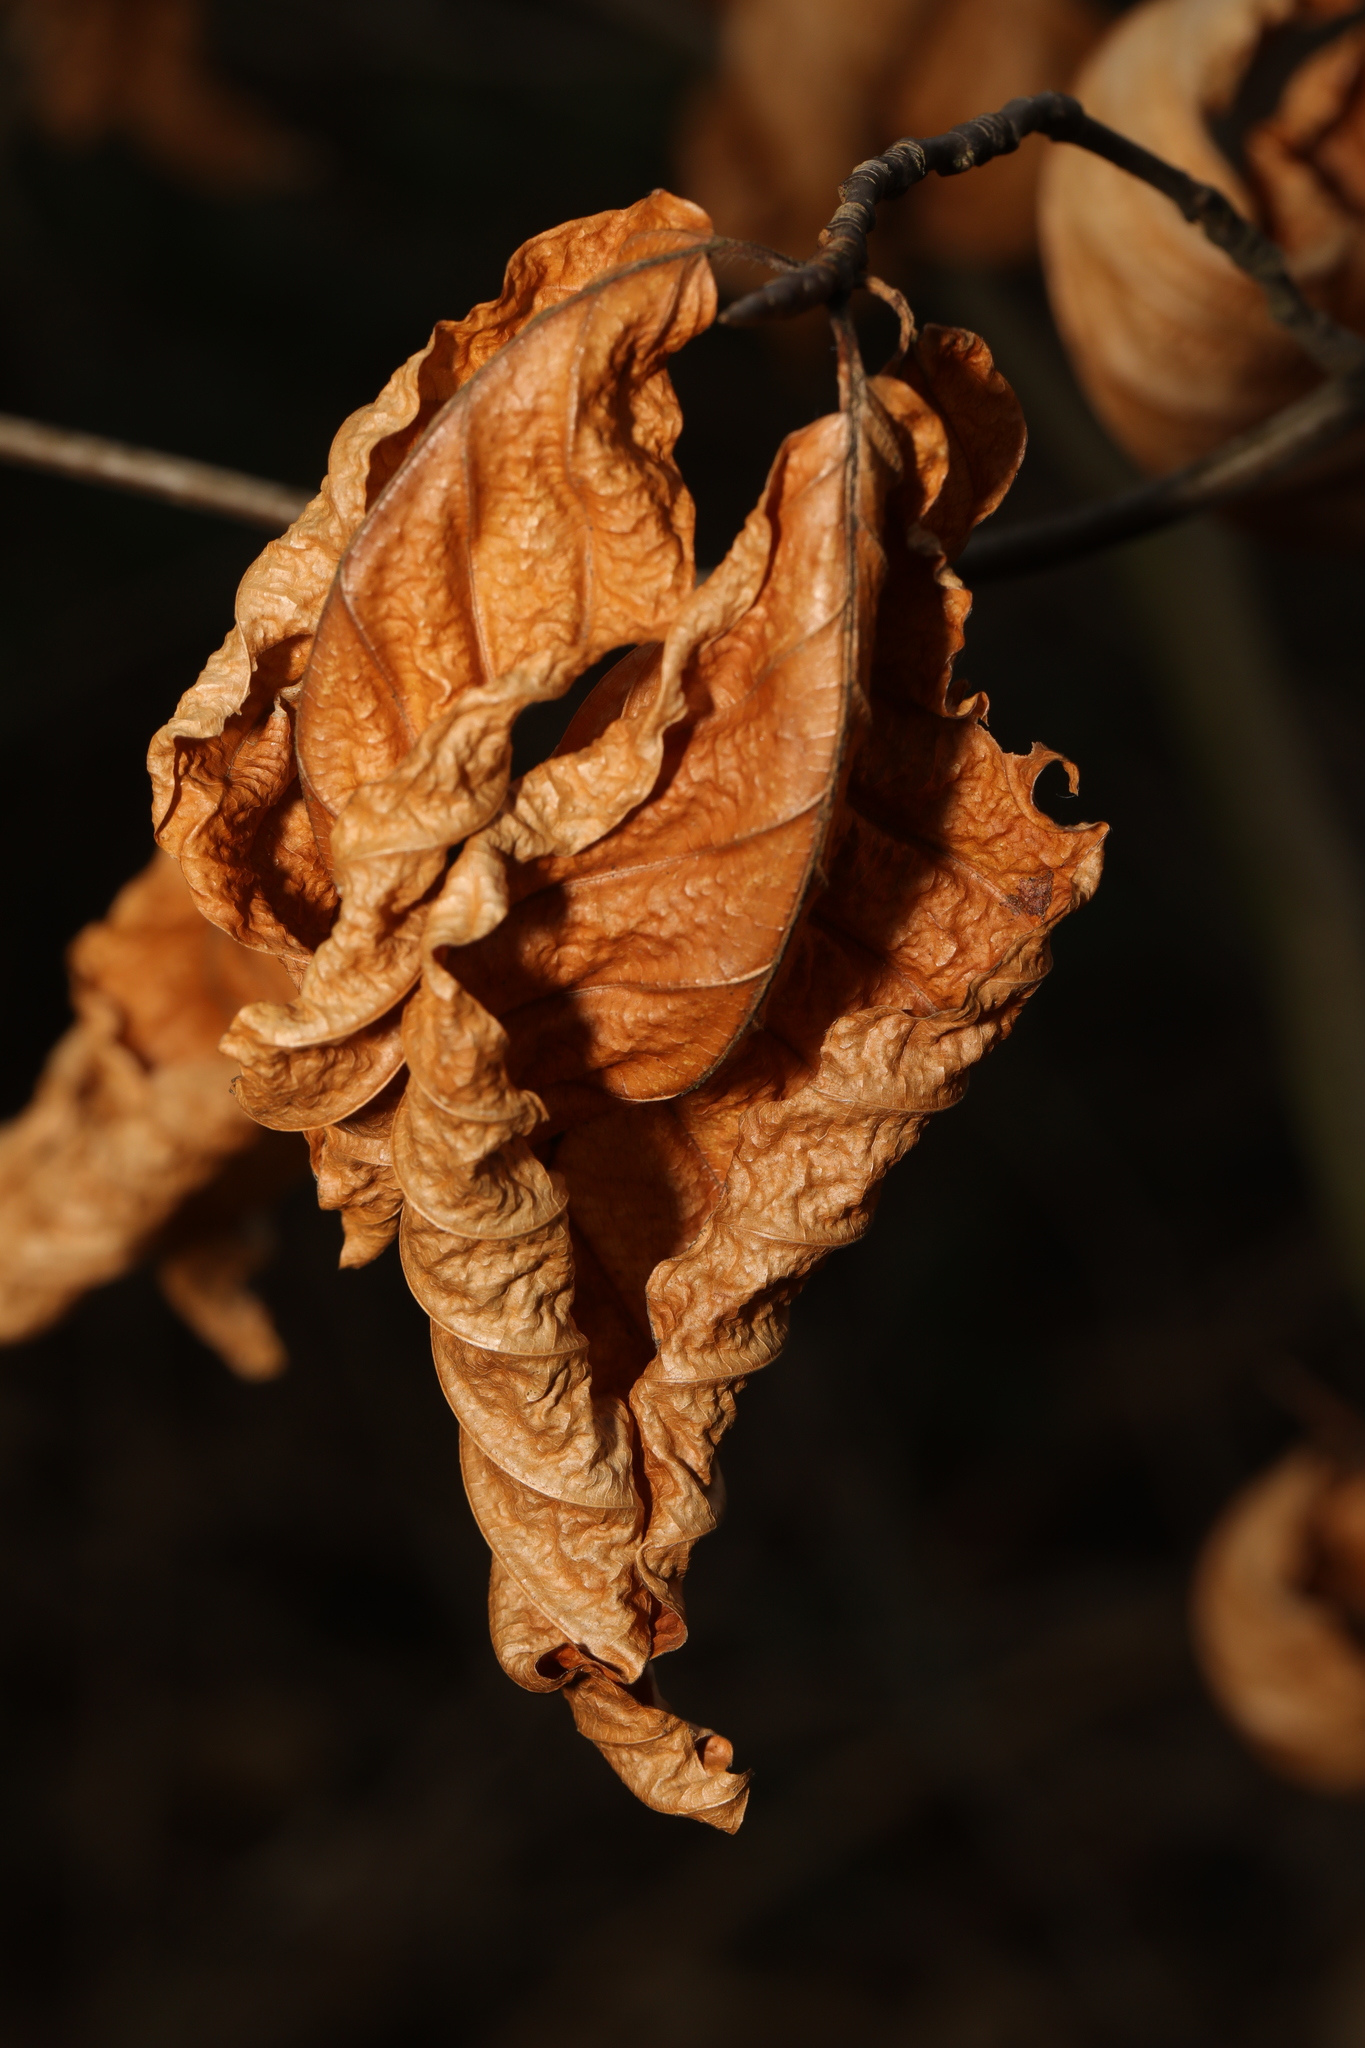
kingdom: Plantae
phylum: Tracheophyta
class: Magnoliopsida
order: Fagales
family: Fagaceae
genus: Fagus
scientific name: Fagus sylvatica
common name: Beech
